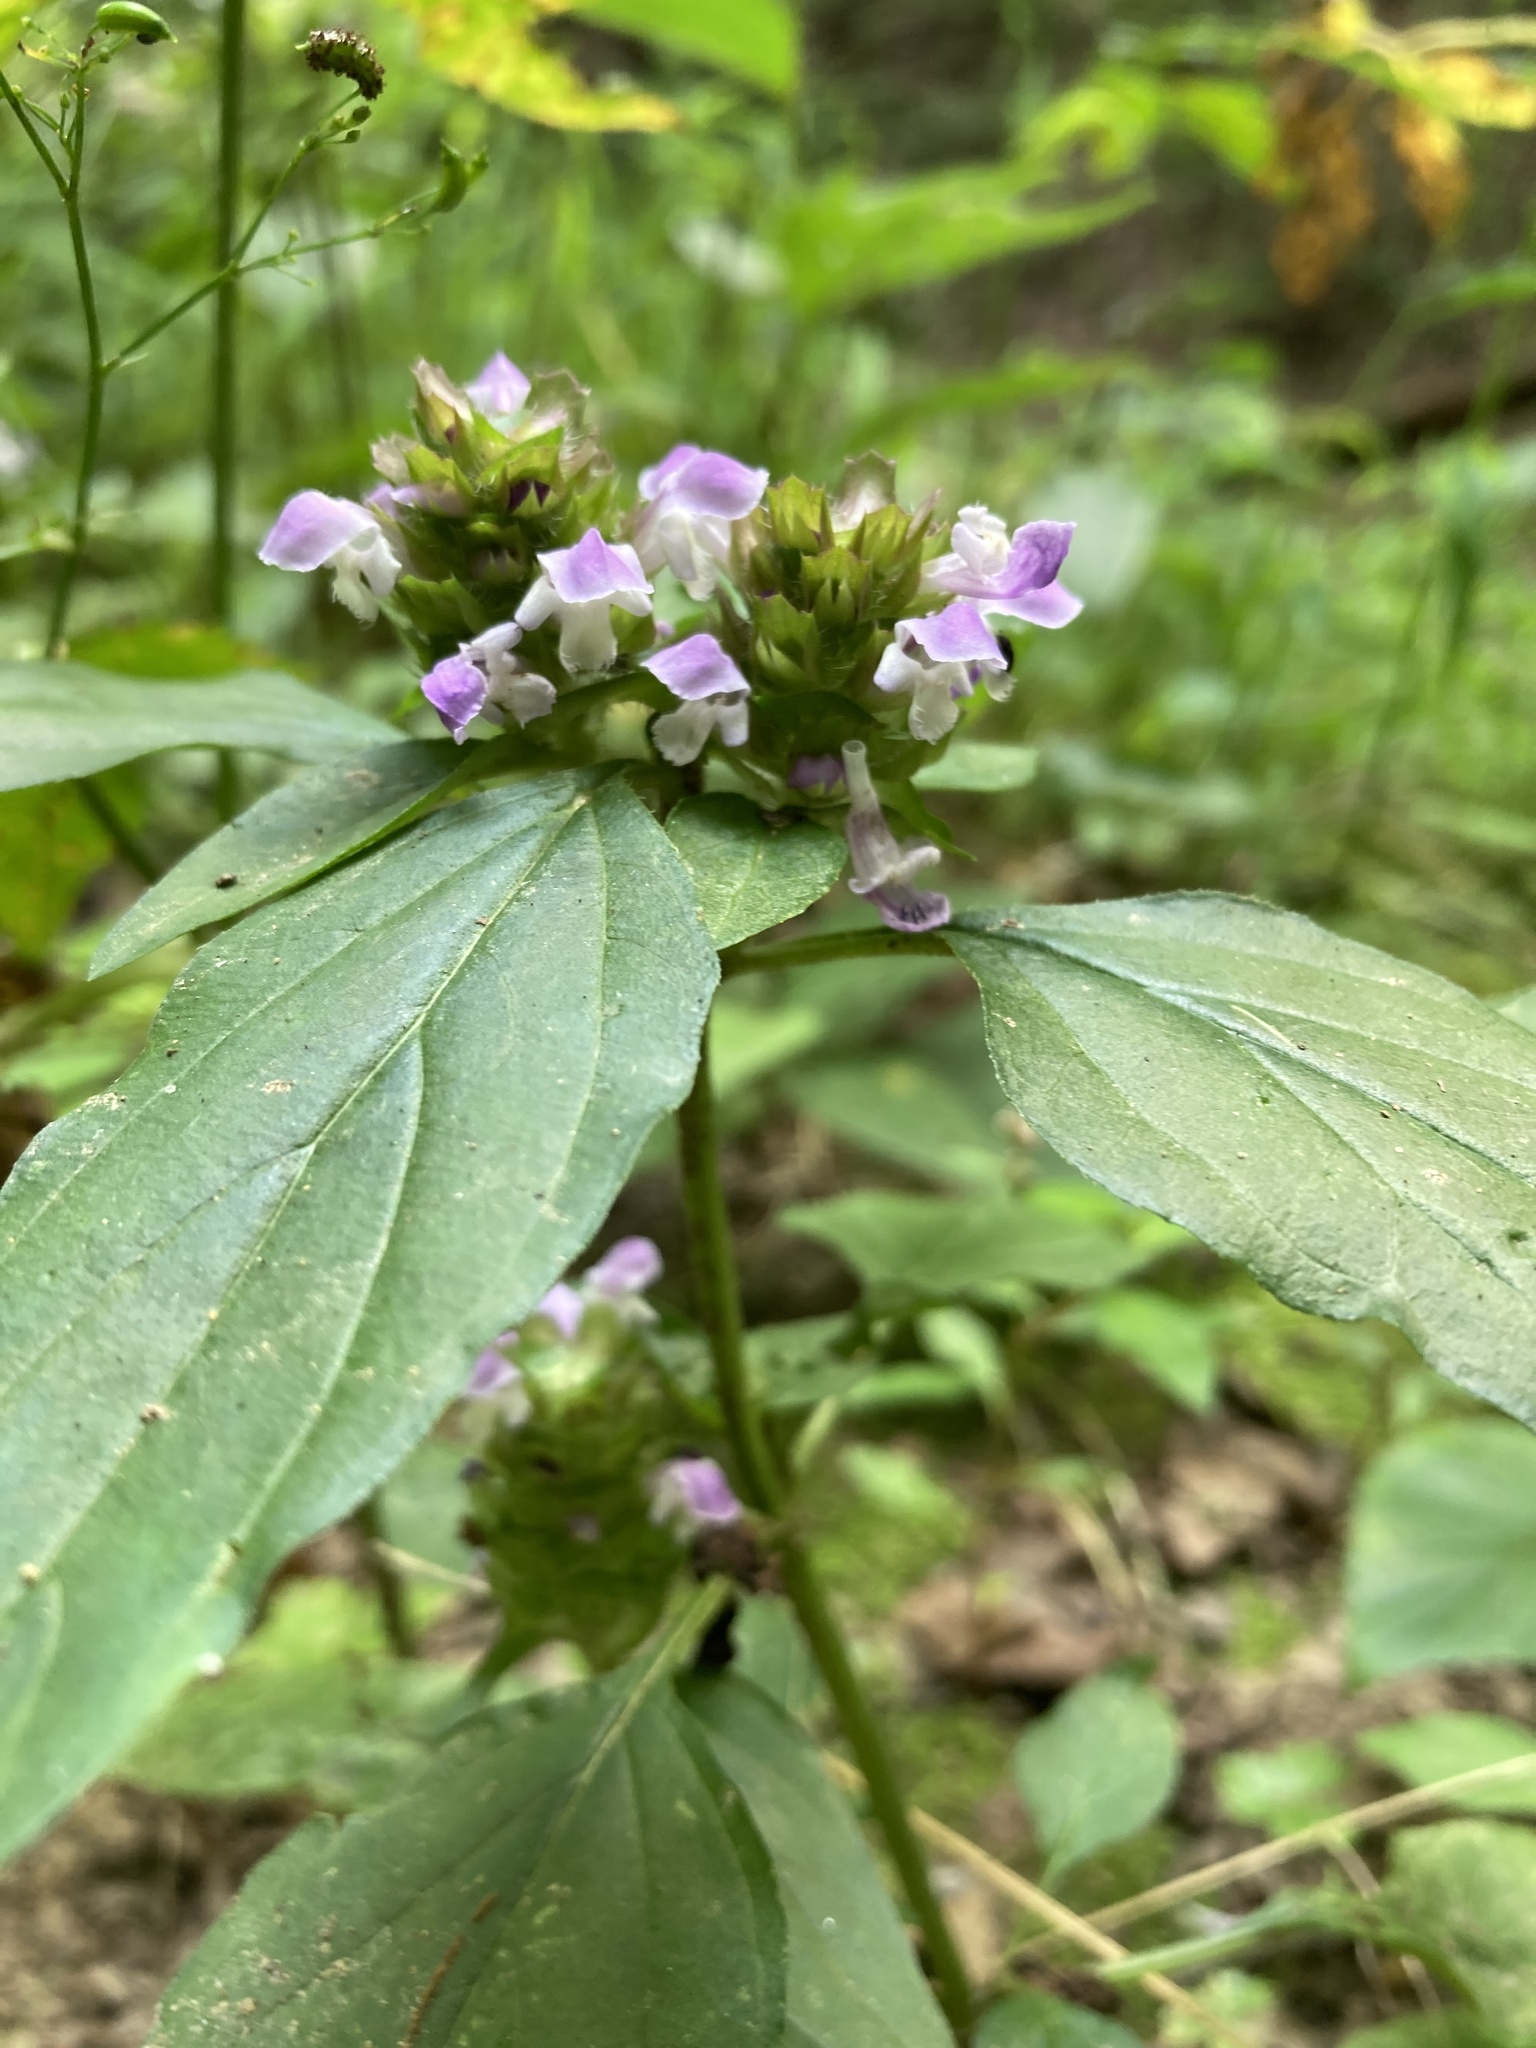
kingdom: Plantae
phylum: Tracheophyta
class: Magnoliopsida
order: Lamiales
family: Lamiaceae
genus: Prunella
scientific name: Prunella vulgaris
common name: Heal-all
